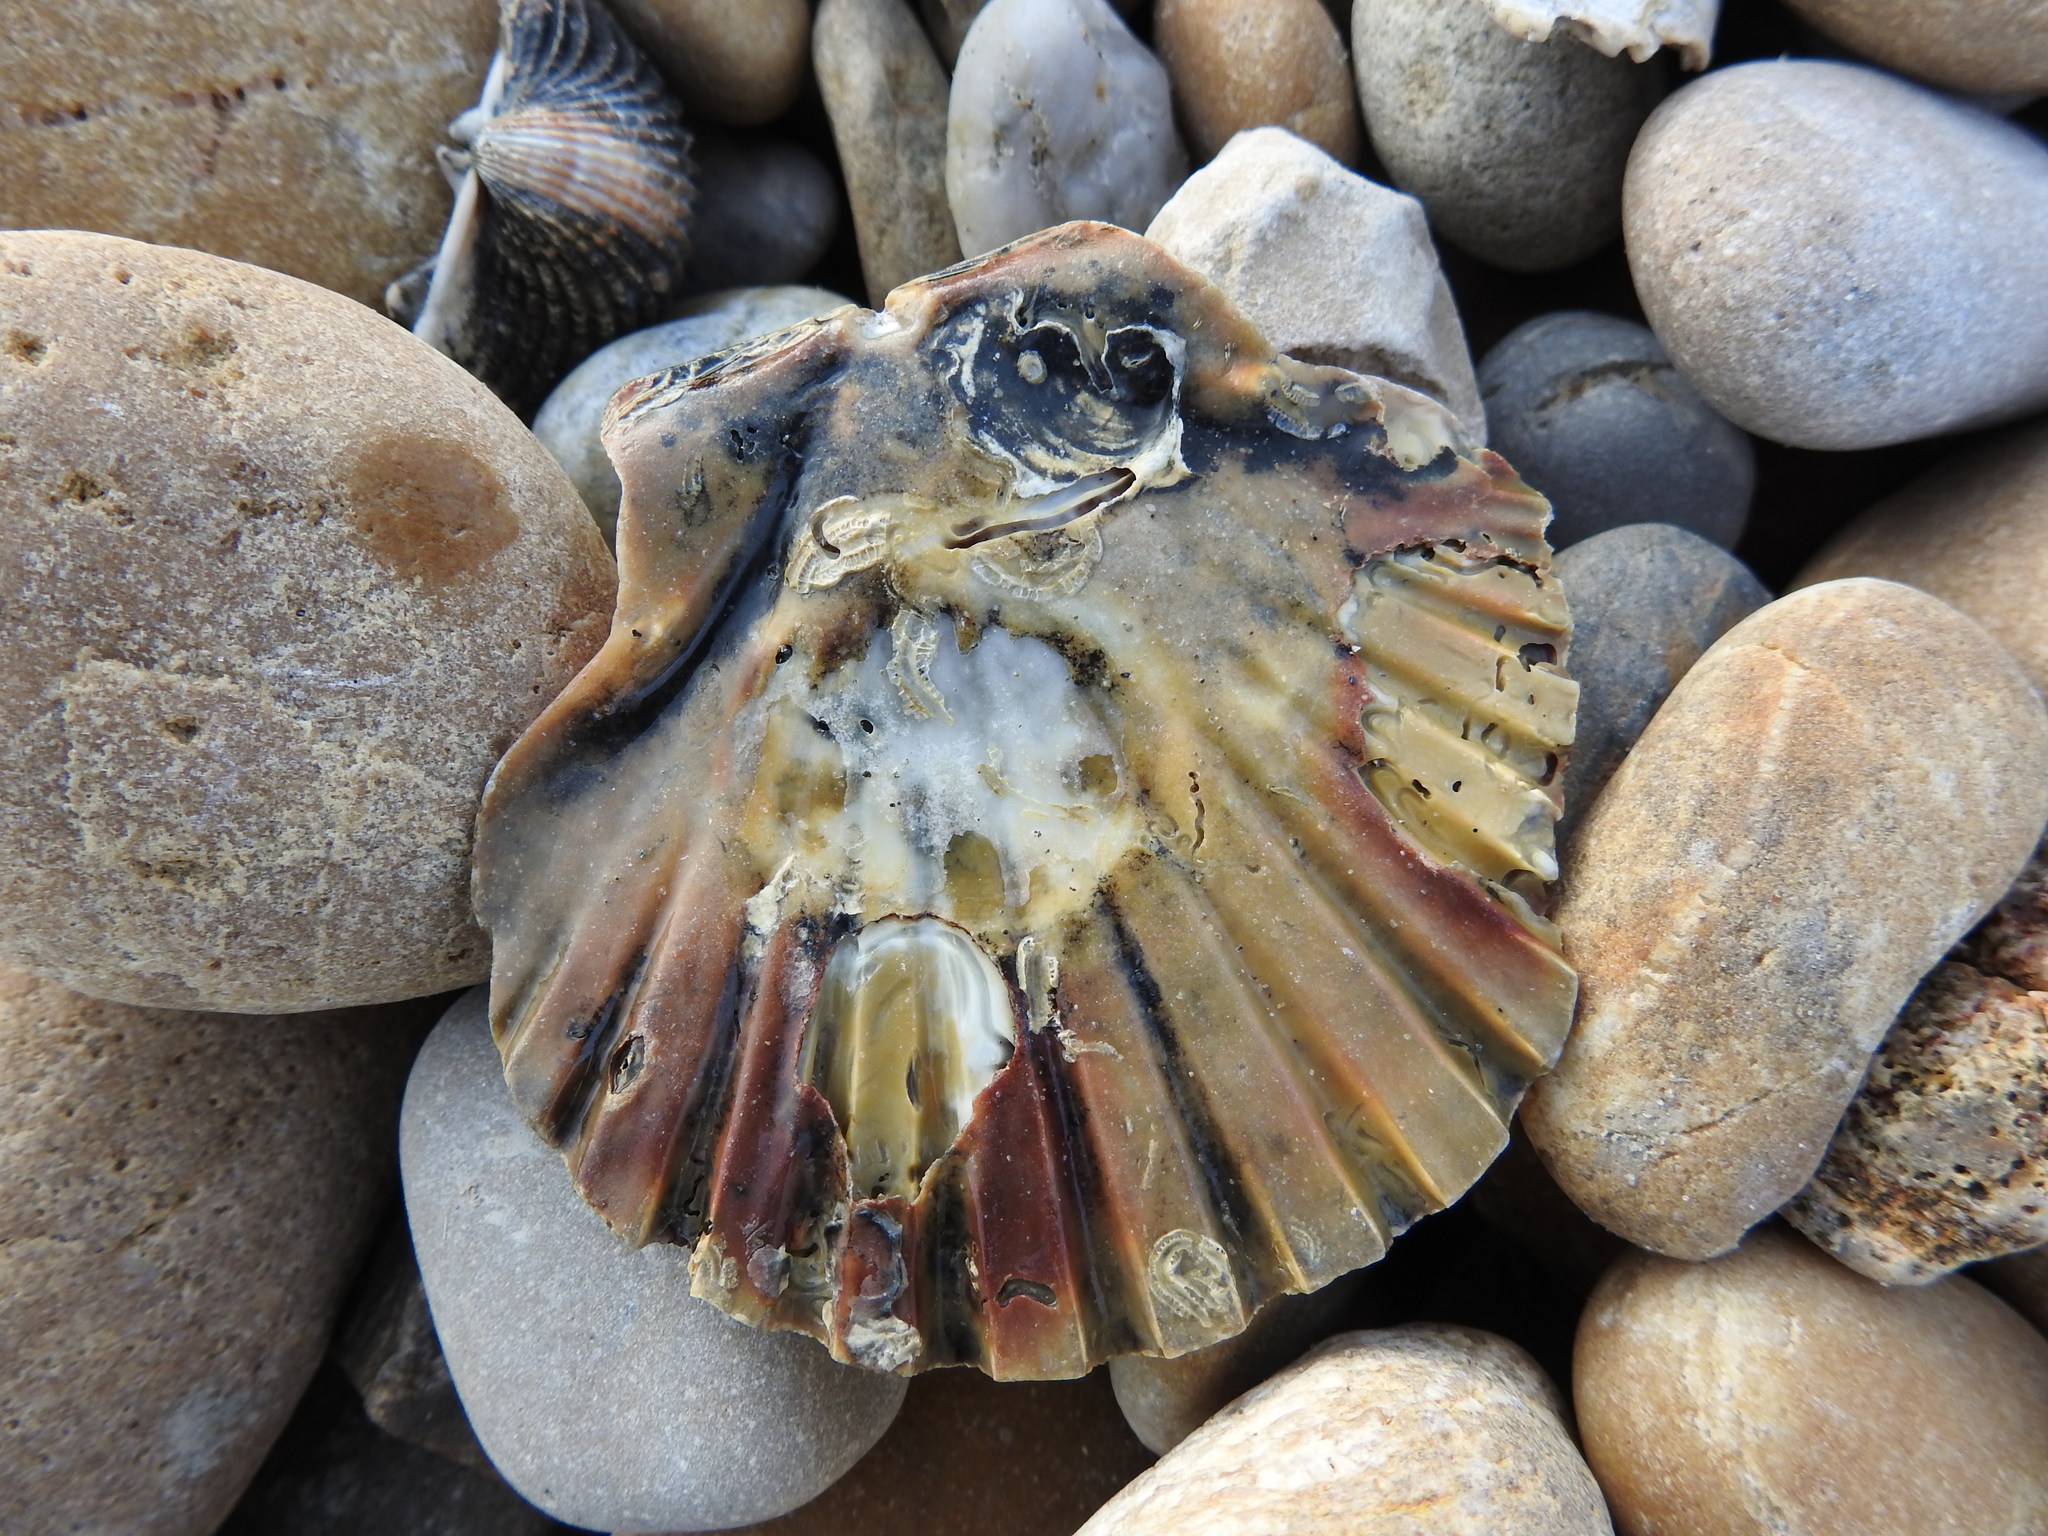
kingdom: Animalia
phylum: Mollusca
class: Bivalvia
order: Pectinida
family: Pectinidae
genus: Pecten
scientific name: Pecten jacobaeus
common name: St.james's scallop
